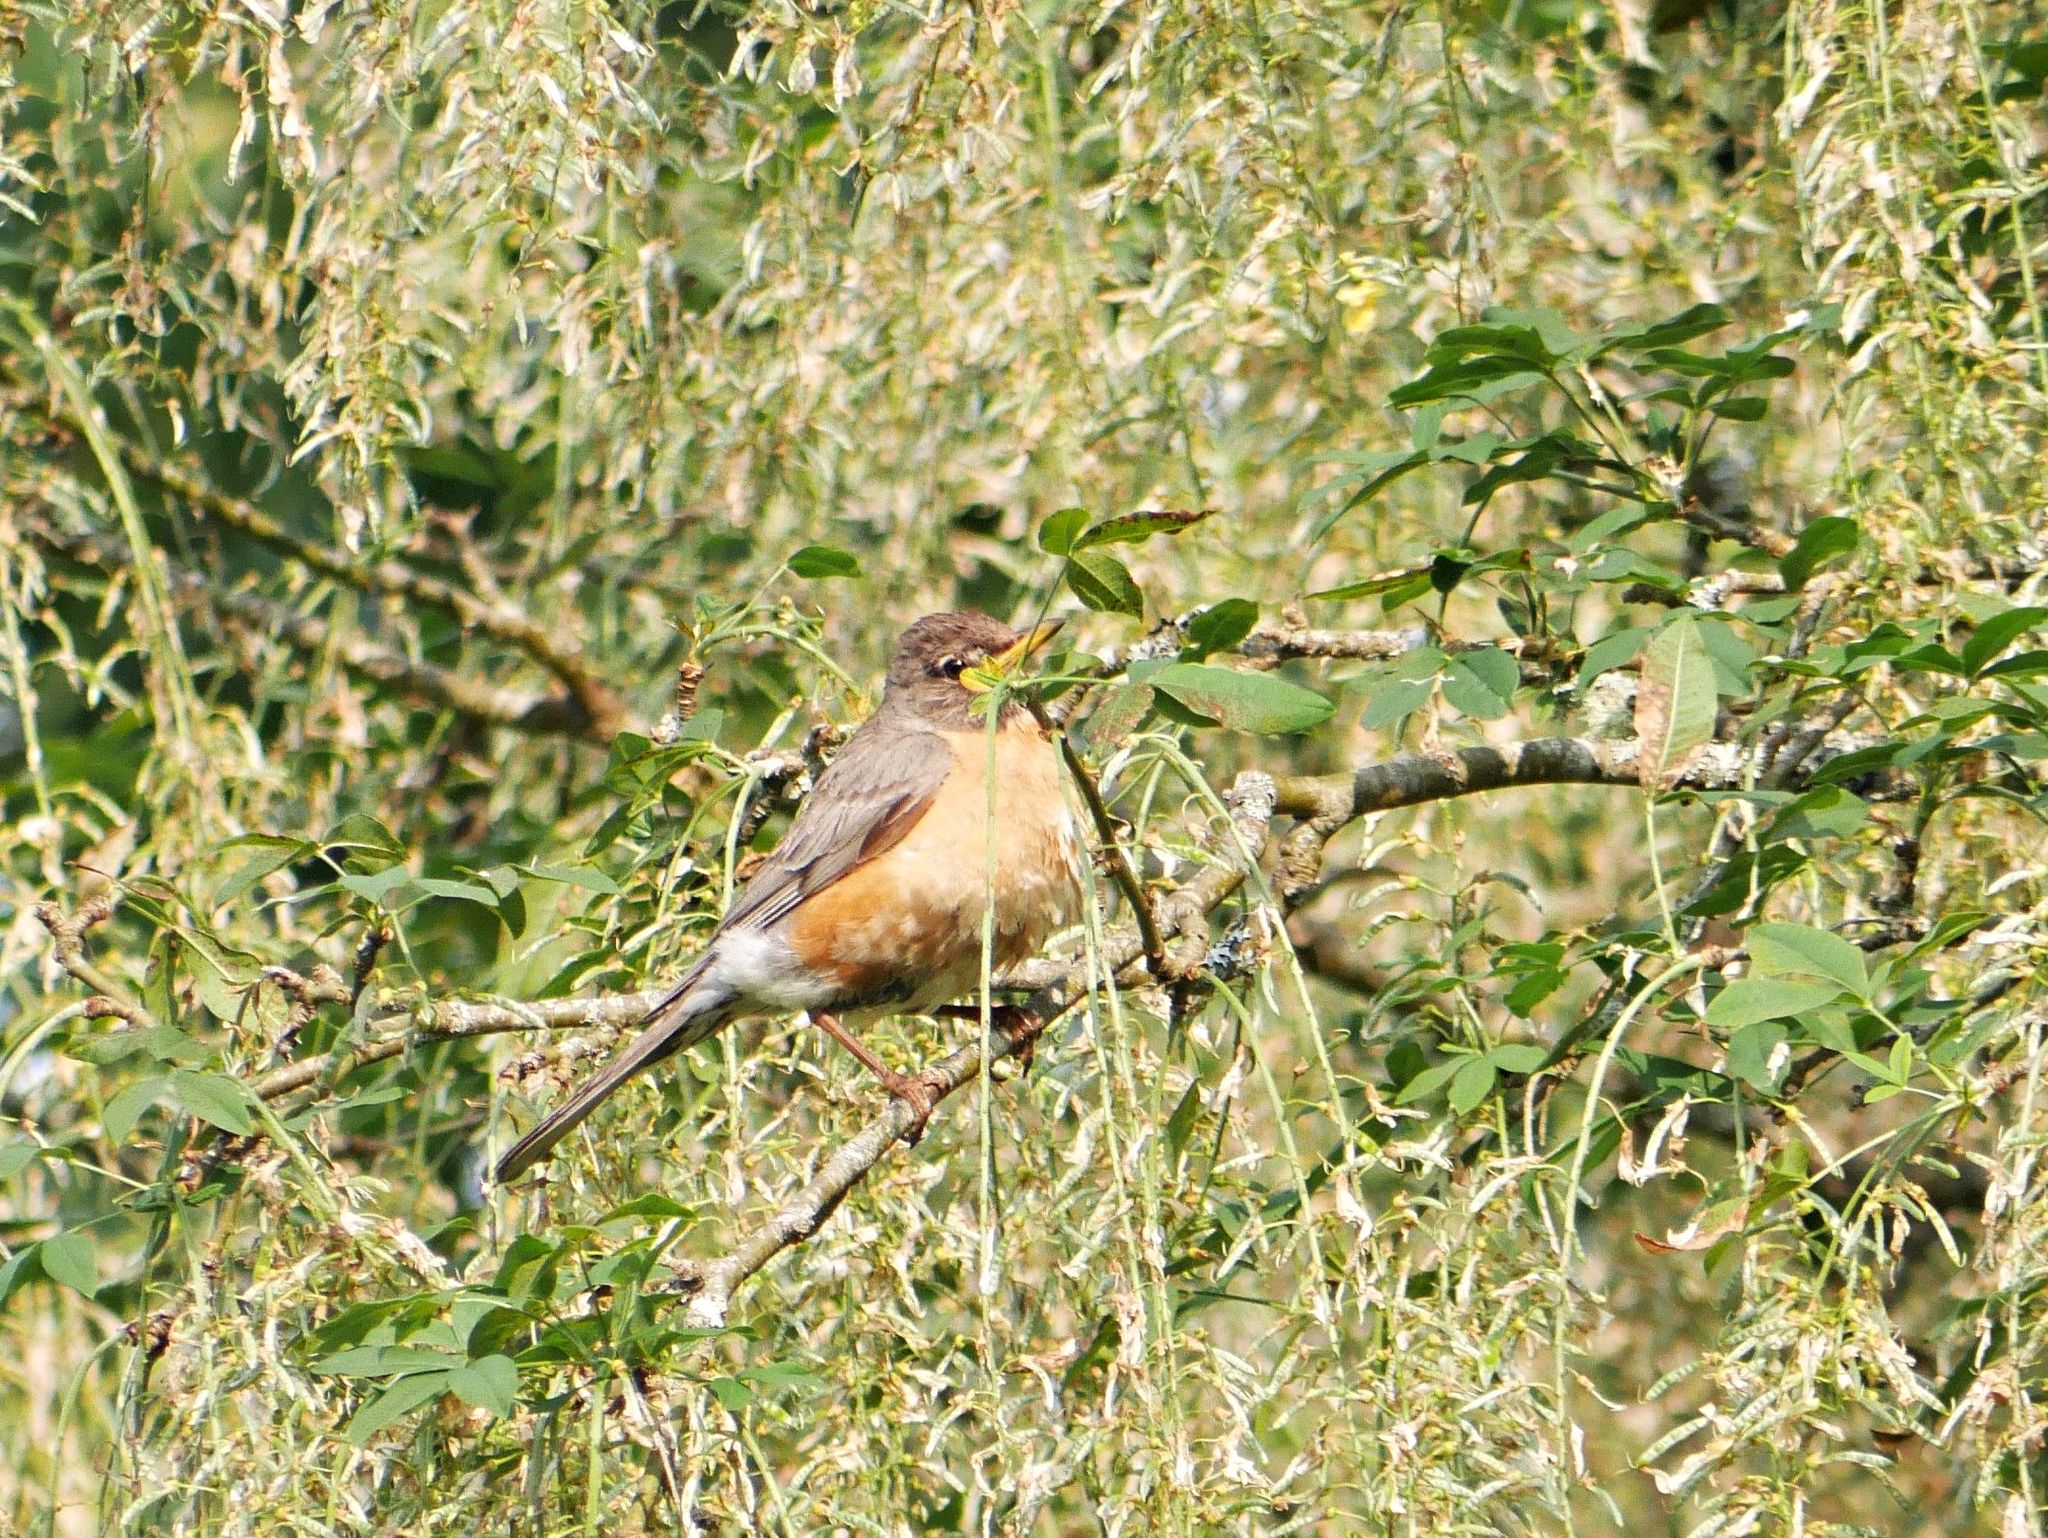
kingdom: Animalia
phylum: Chordata
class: Aves
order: Passeriformes
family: Turdidae
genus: Turdus
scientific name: Turdus migratorius
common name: American robin
